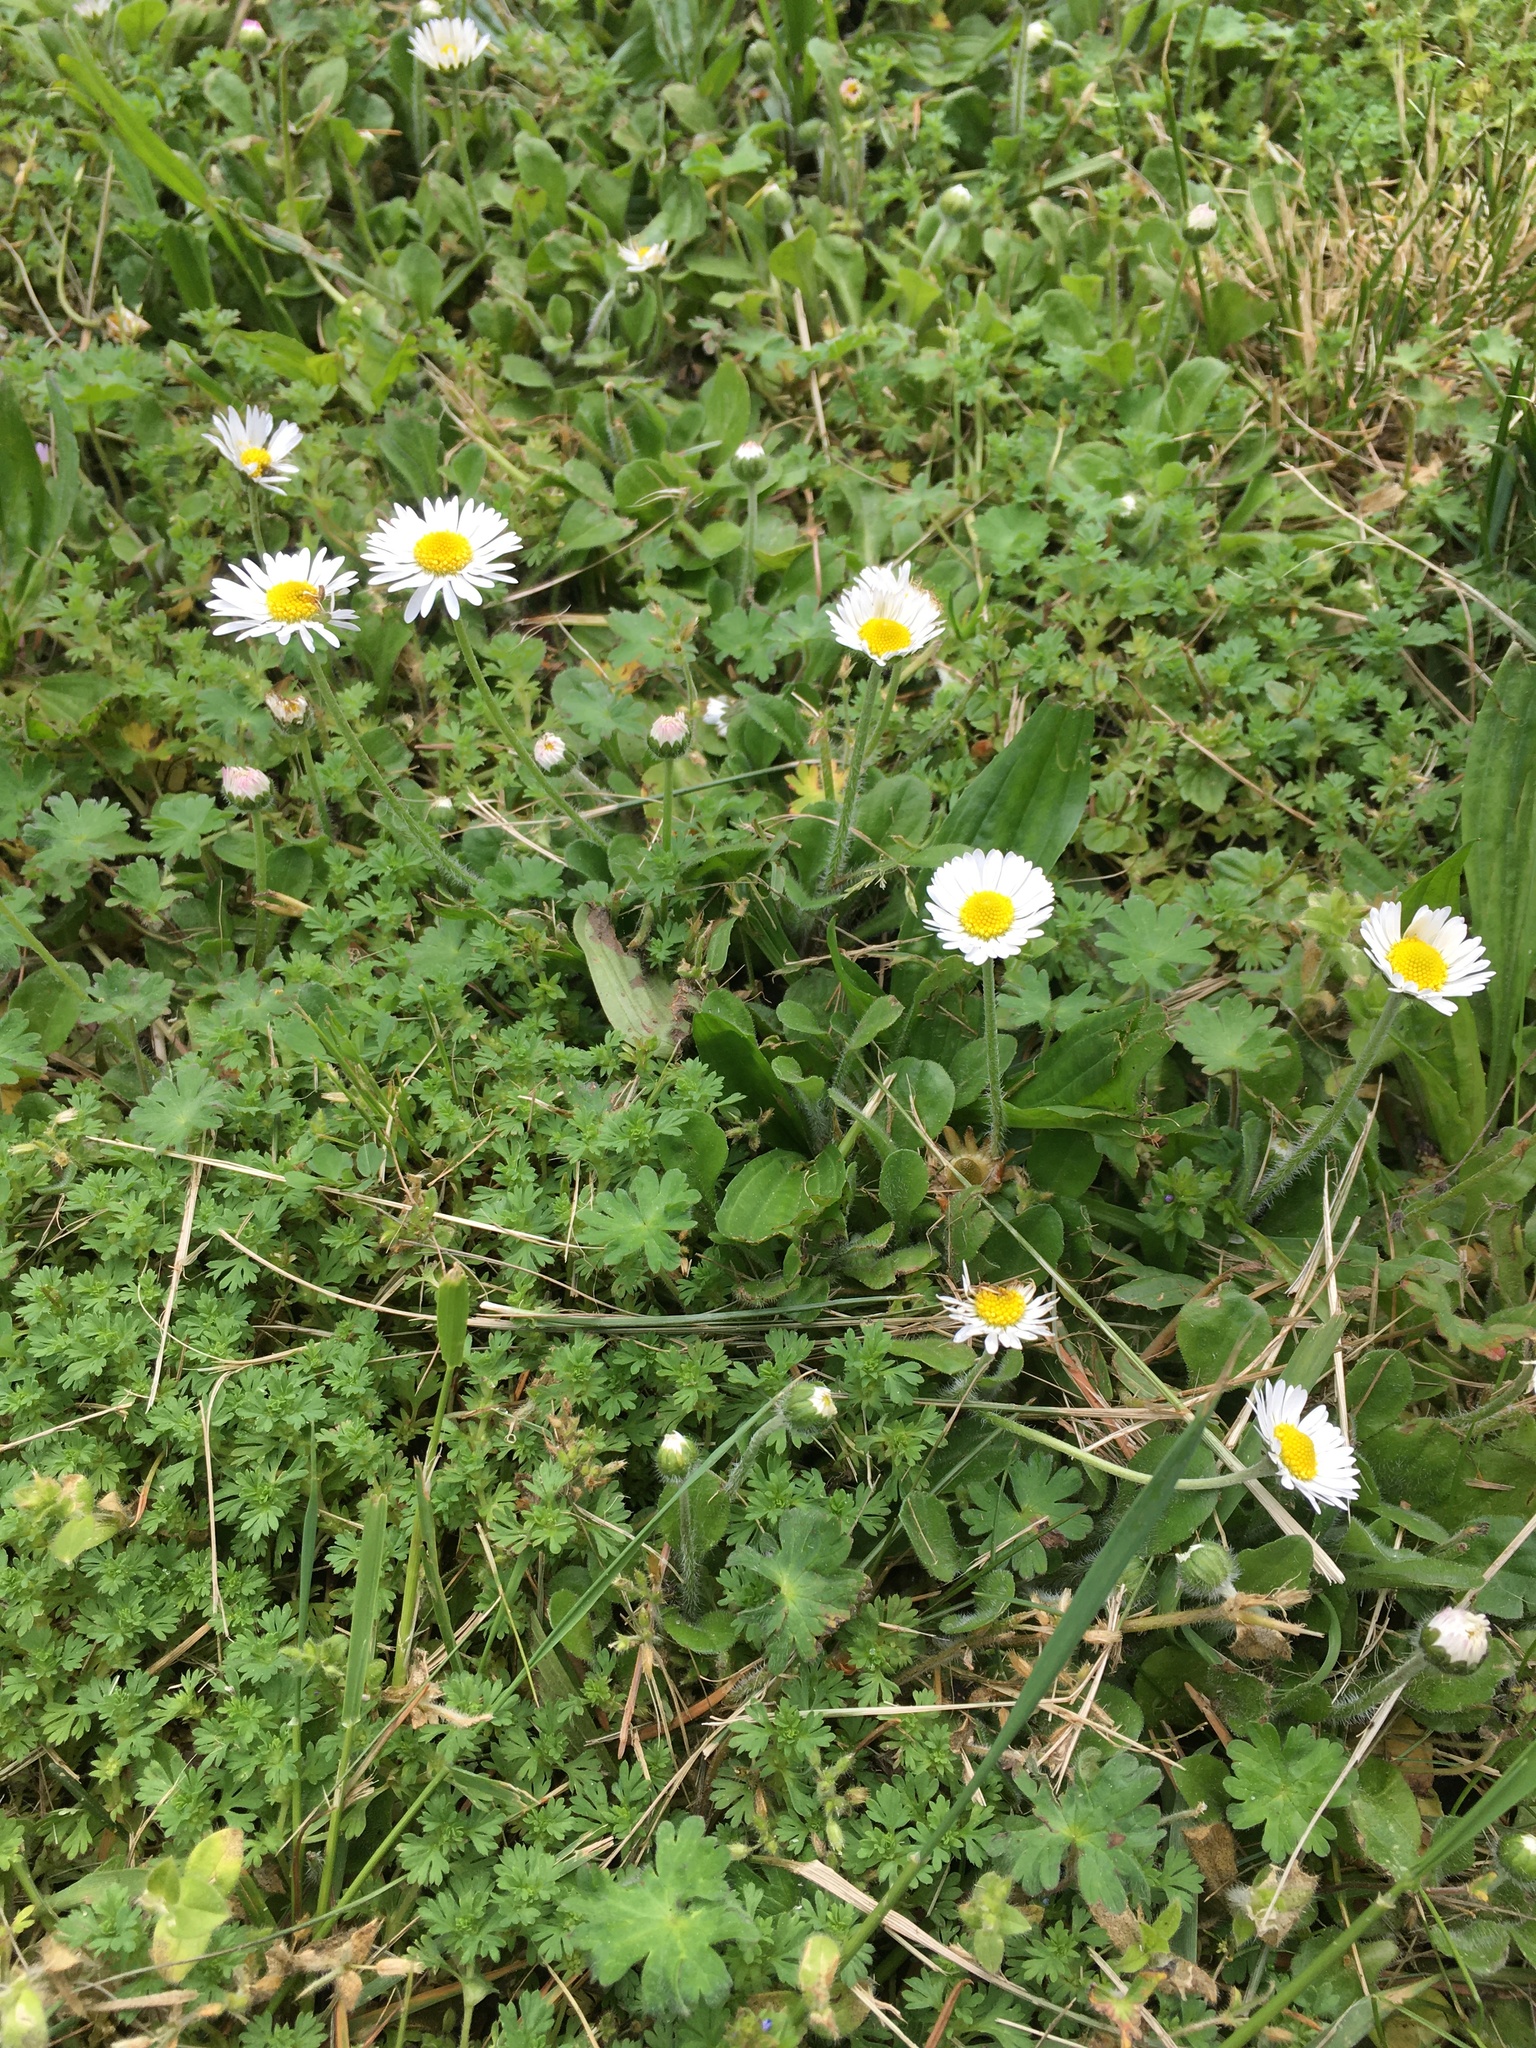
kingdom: Plantae
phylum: Tracheophyta
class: Magnoliopsida
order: Asterales
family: Asteraceae
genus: Bellis
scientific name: Bellis perennis
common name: Lawndaisy
